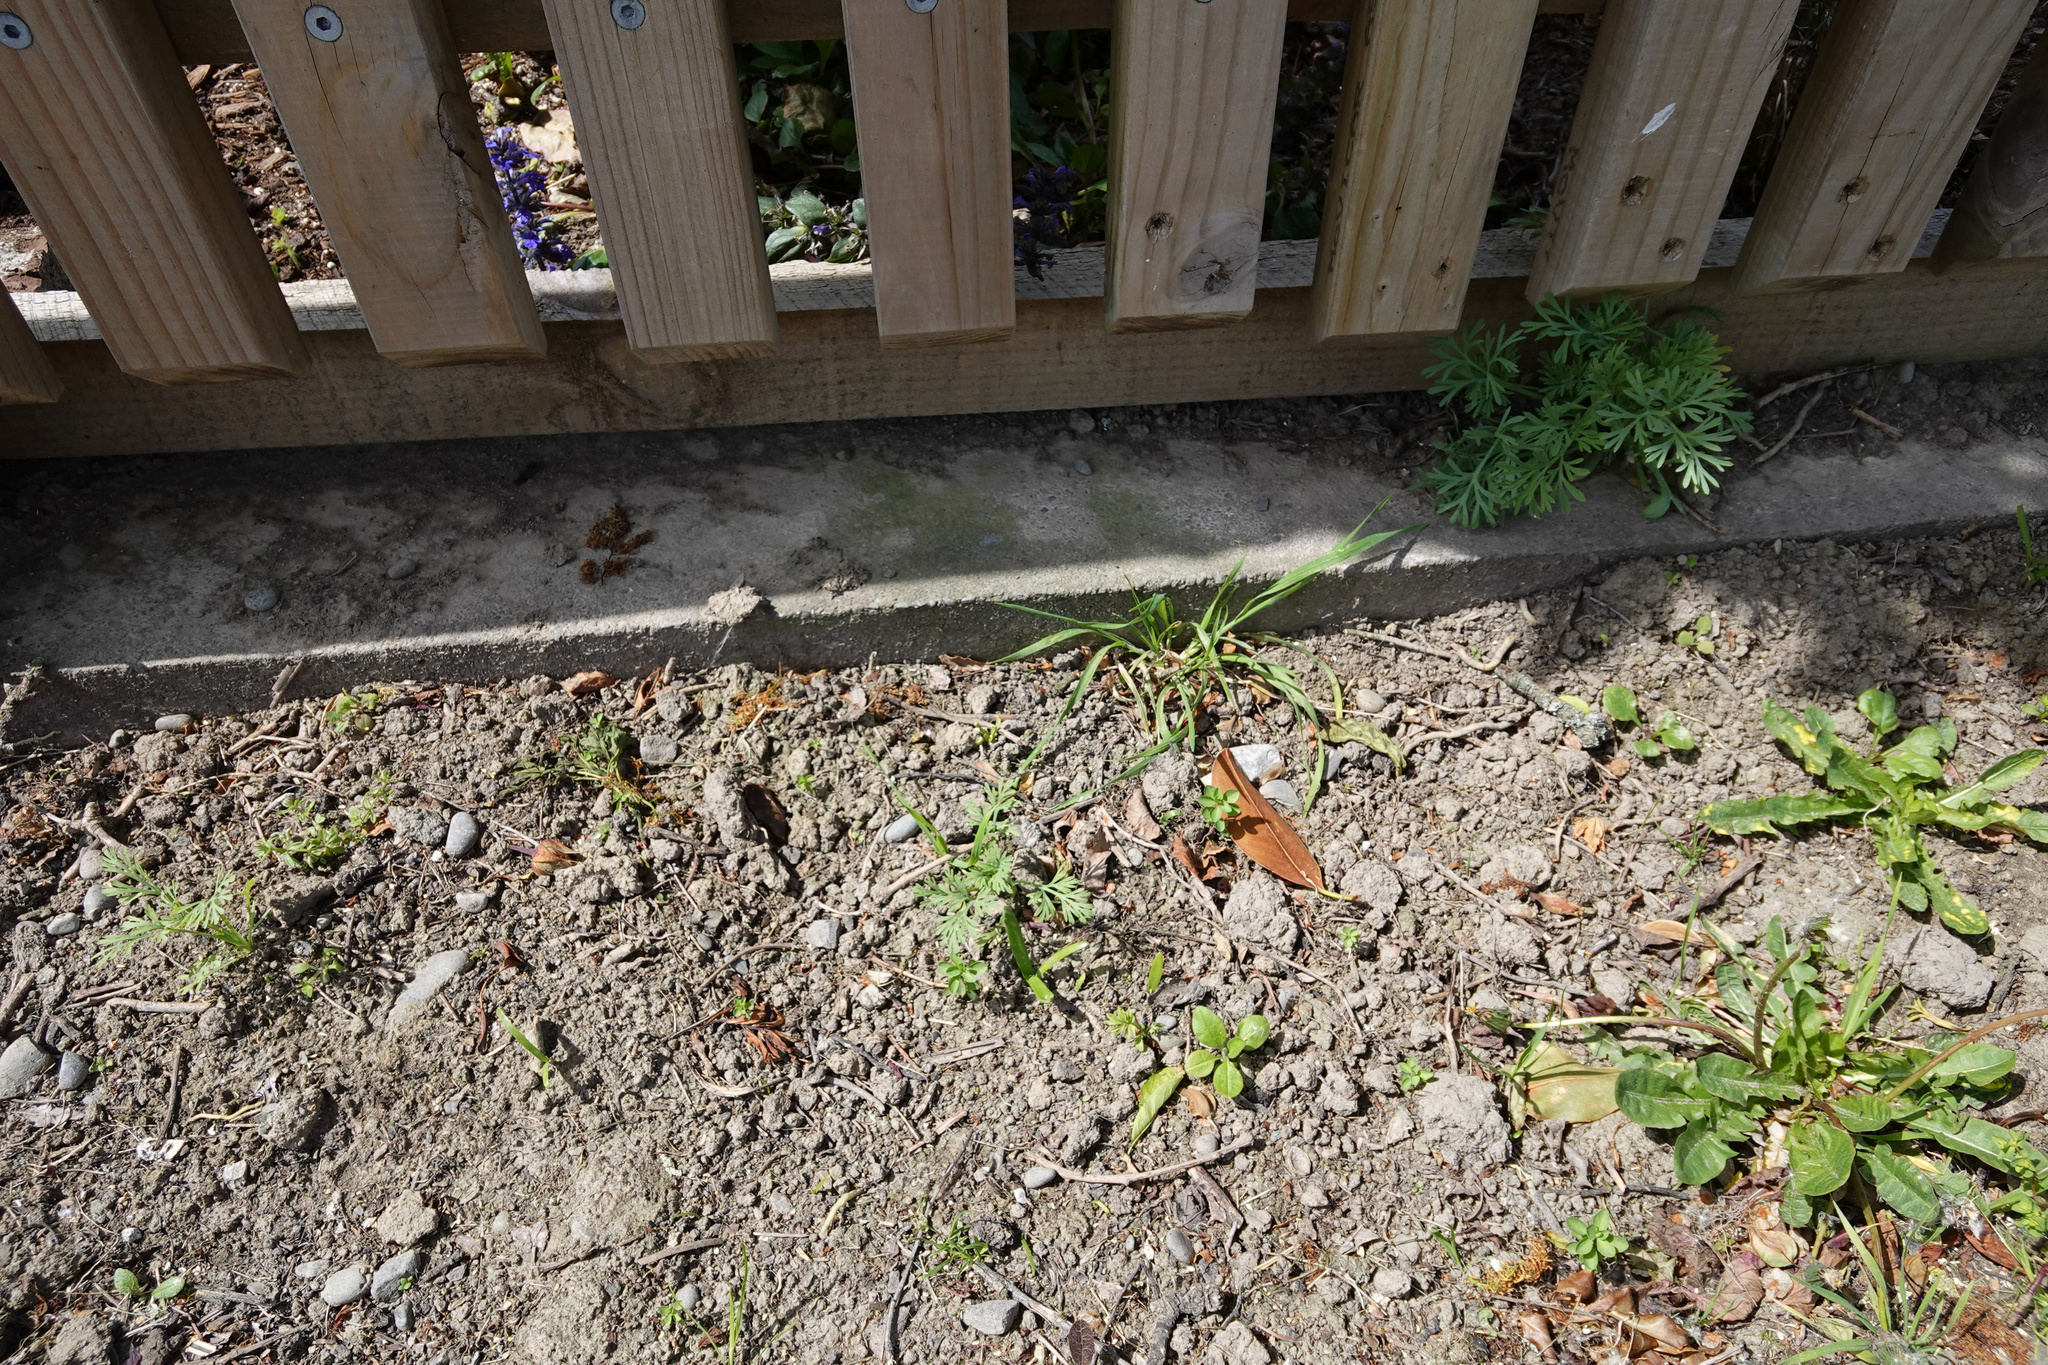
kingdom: Plantae
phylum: Tracheophyta
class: Magnoliopsida
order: Ranunculales
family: Papaveraceae
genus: Eschscholzia
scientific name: Eschscholzia californica
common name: California poppy
